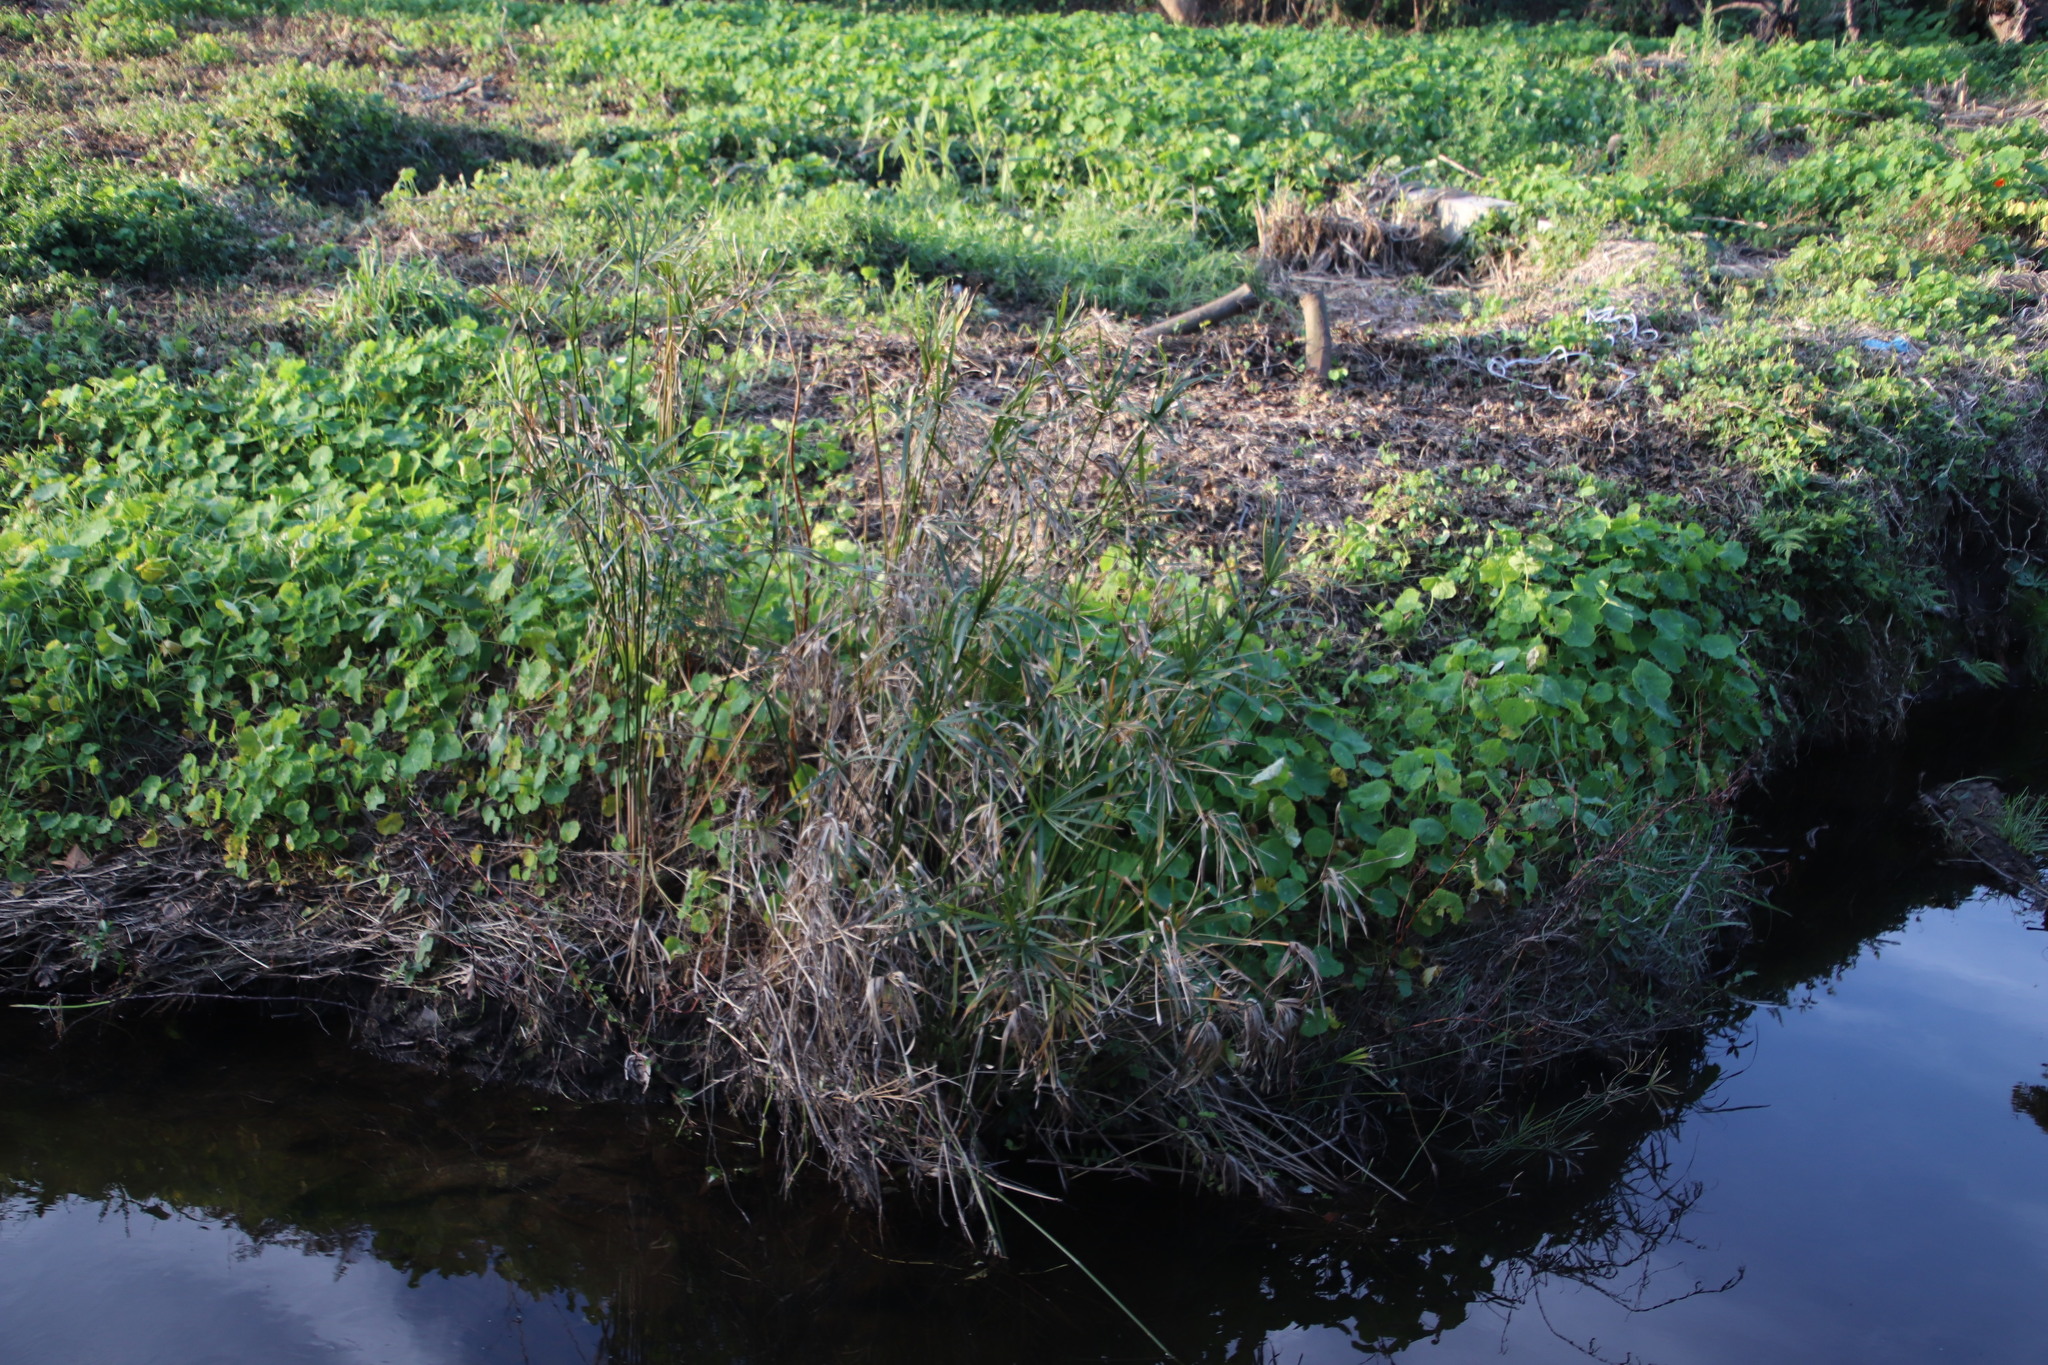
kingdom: Plantae
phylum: Tracheophyta
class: Liliopsida
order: Poales
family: Cyperaceae
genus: Cyperus
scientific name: Cyperus textilis
